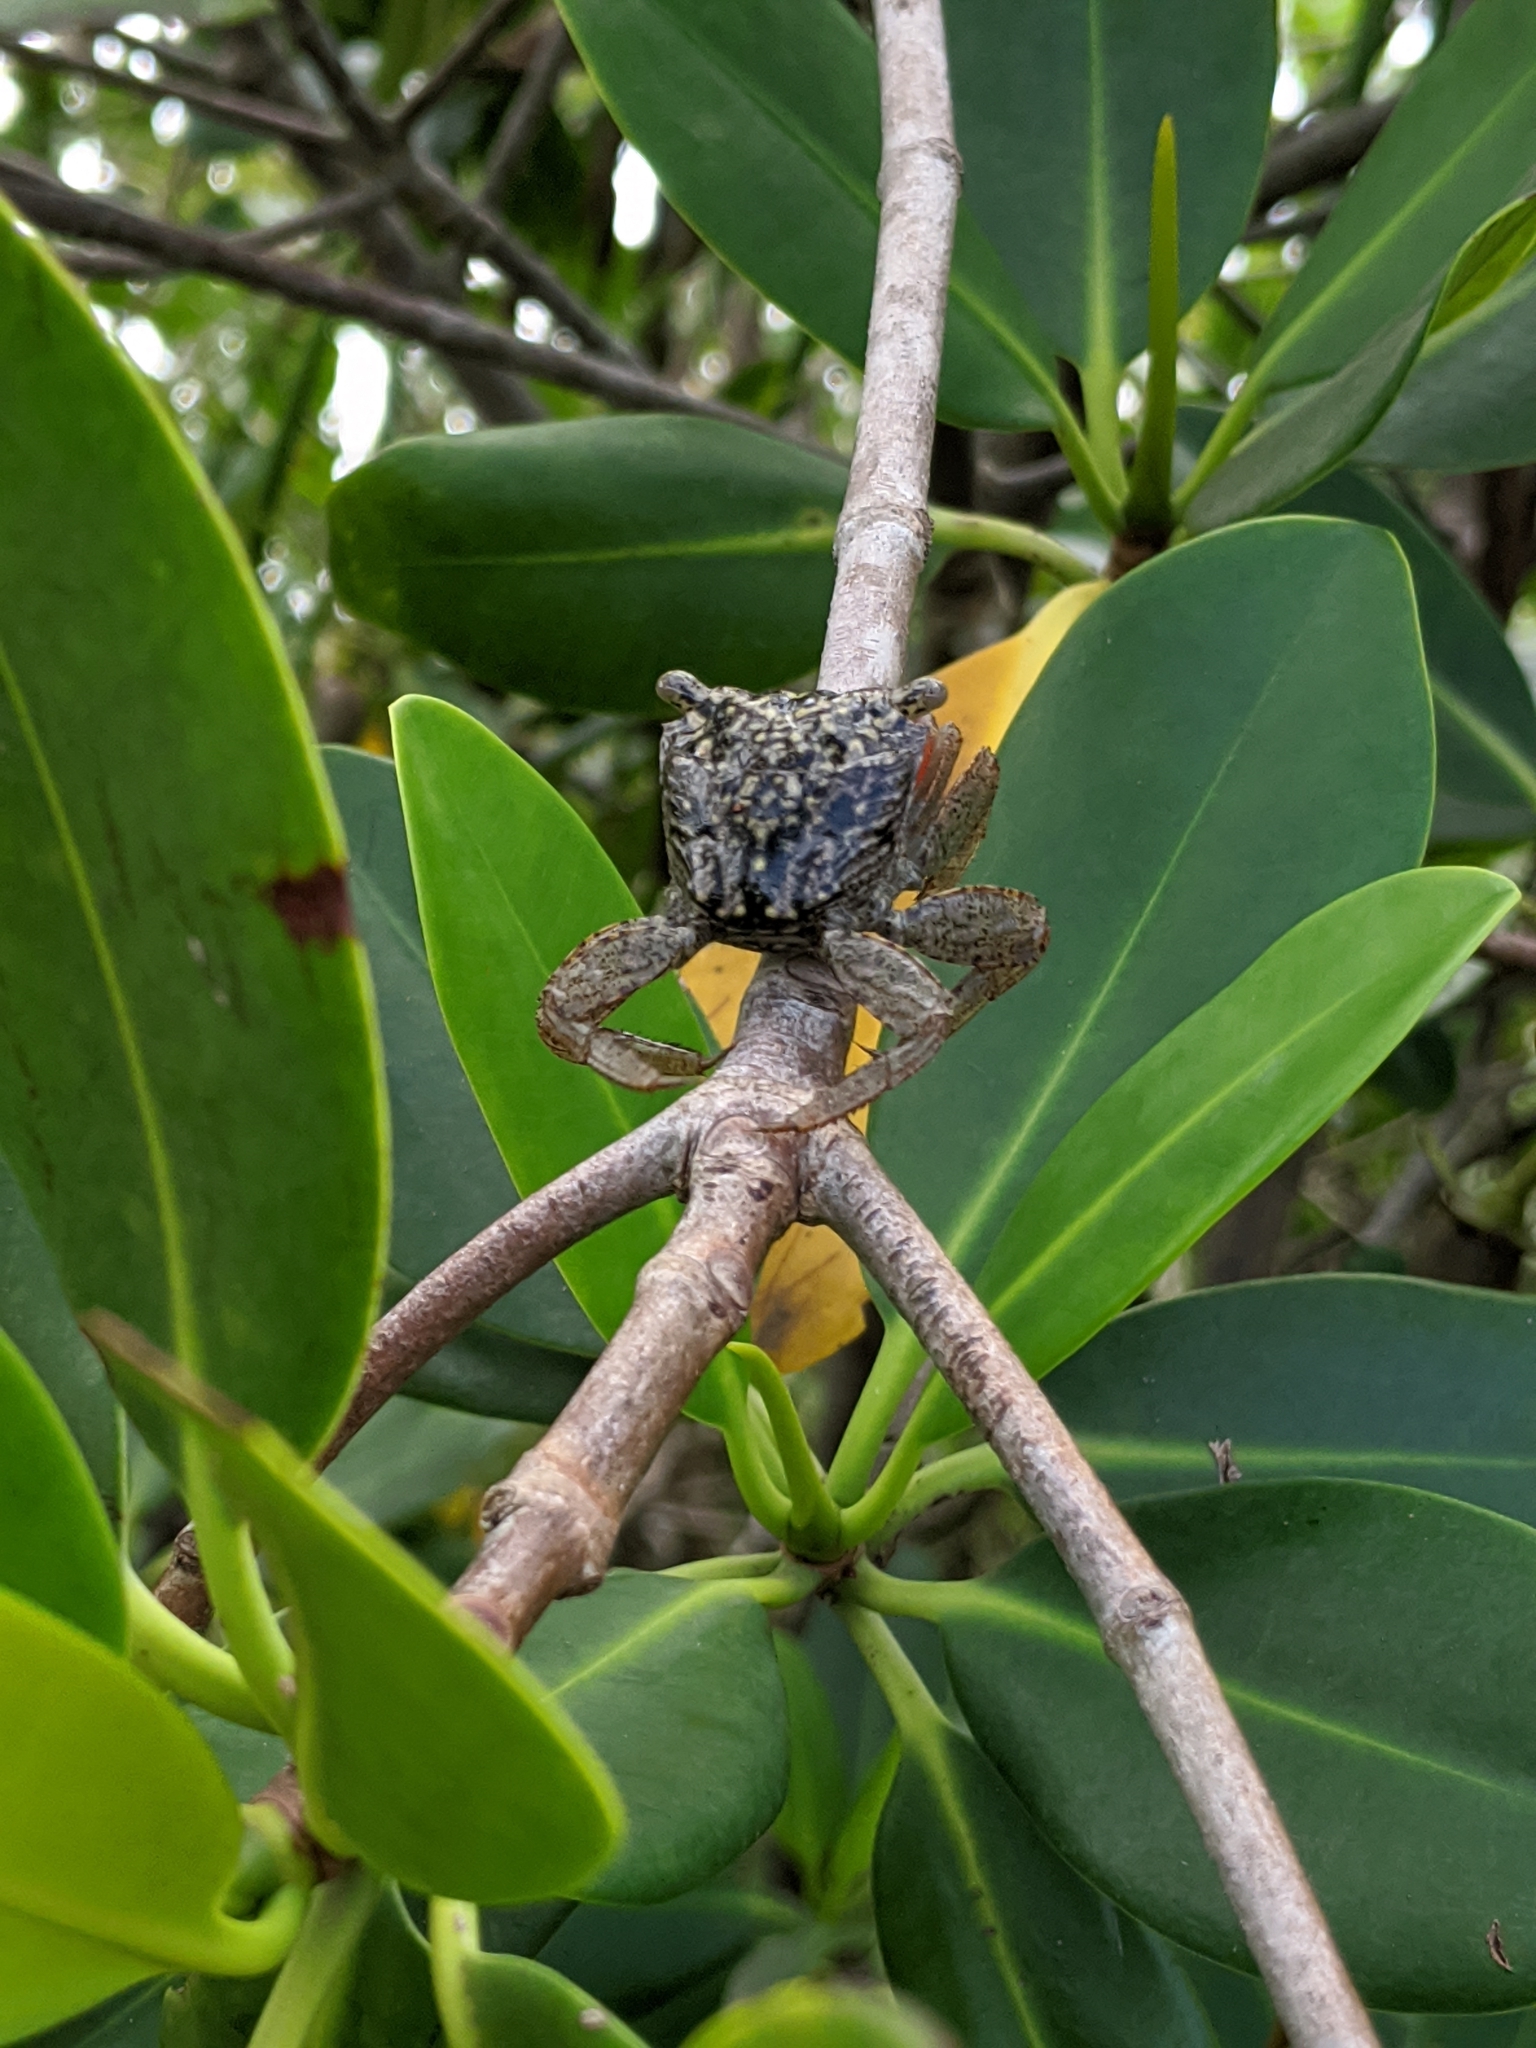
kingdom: Animalia
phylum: Arthropoda
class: Malacostraca
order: Decapoda
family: Sesarmidae
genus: Aratus
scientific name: Aratus pisonii
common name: Mangrove crab
